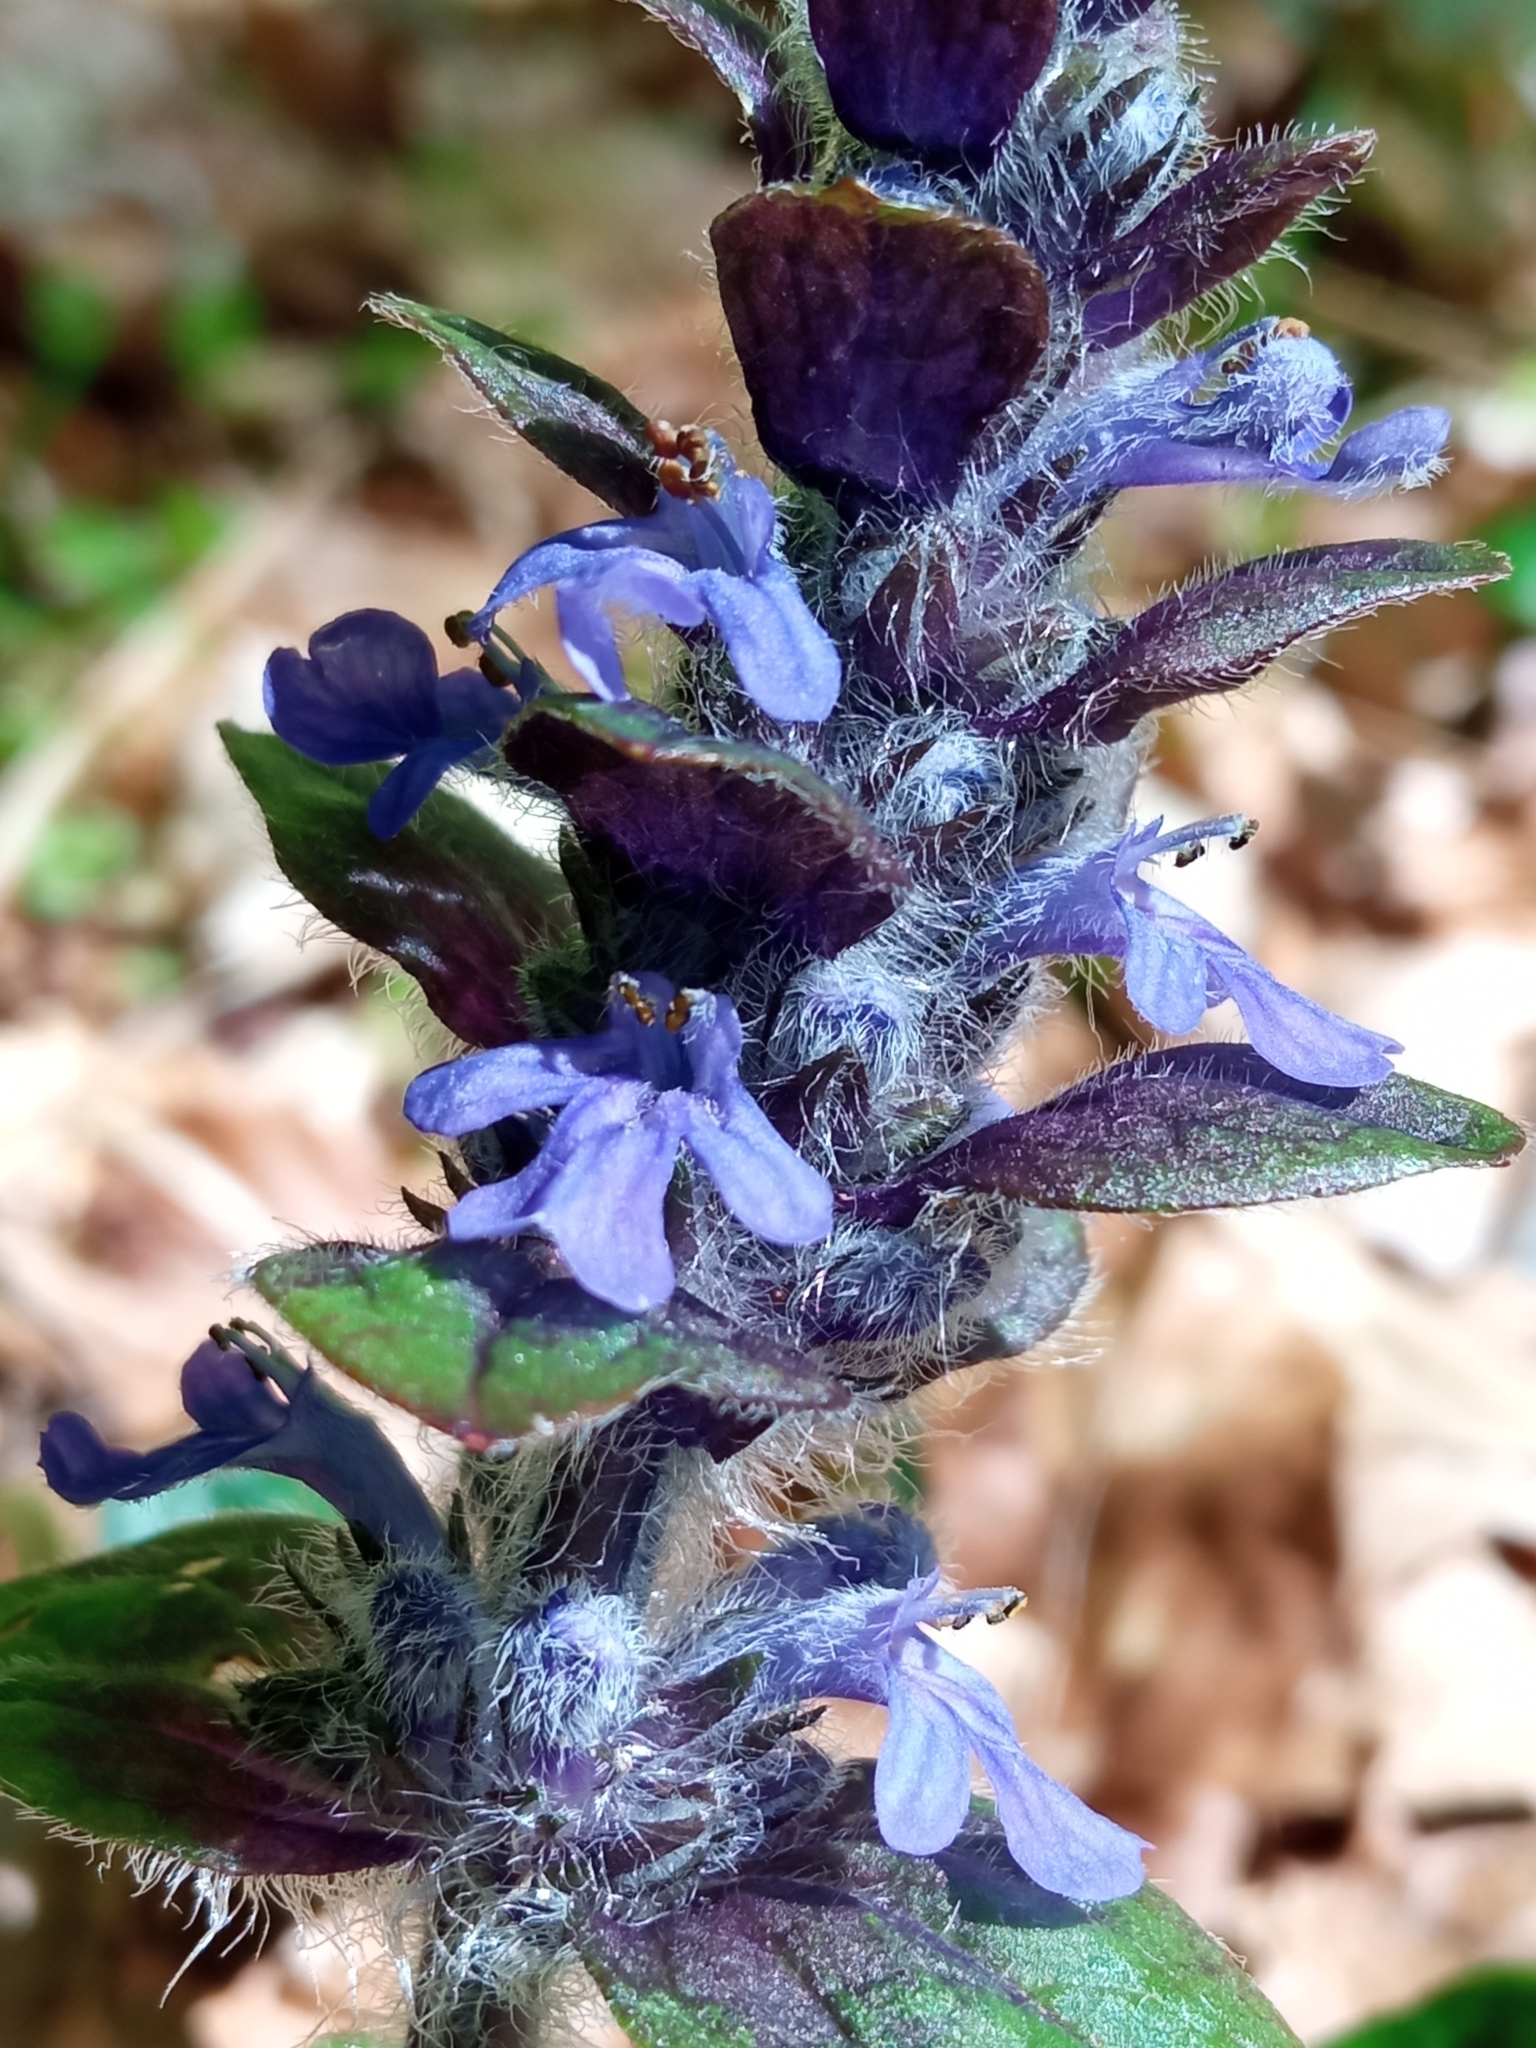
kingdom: Plantae
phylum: Tracheophyta
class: Magnoliopsida
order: Lamiales
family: Lamiaceae
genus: Ajuga
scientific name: Ajuga reptans
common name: Bugle
